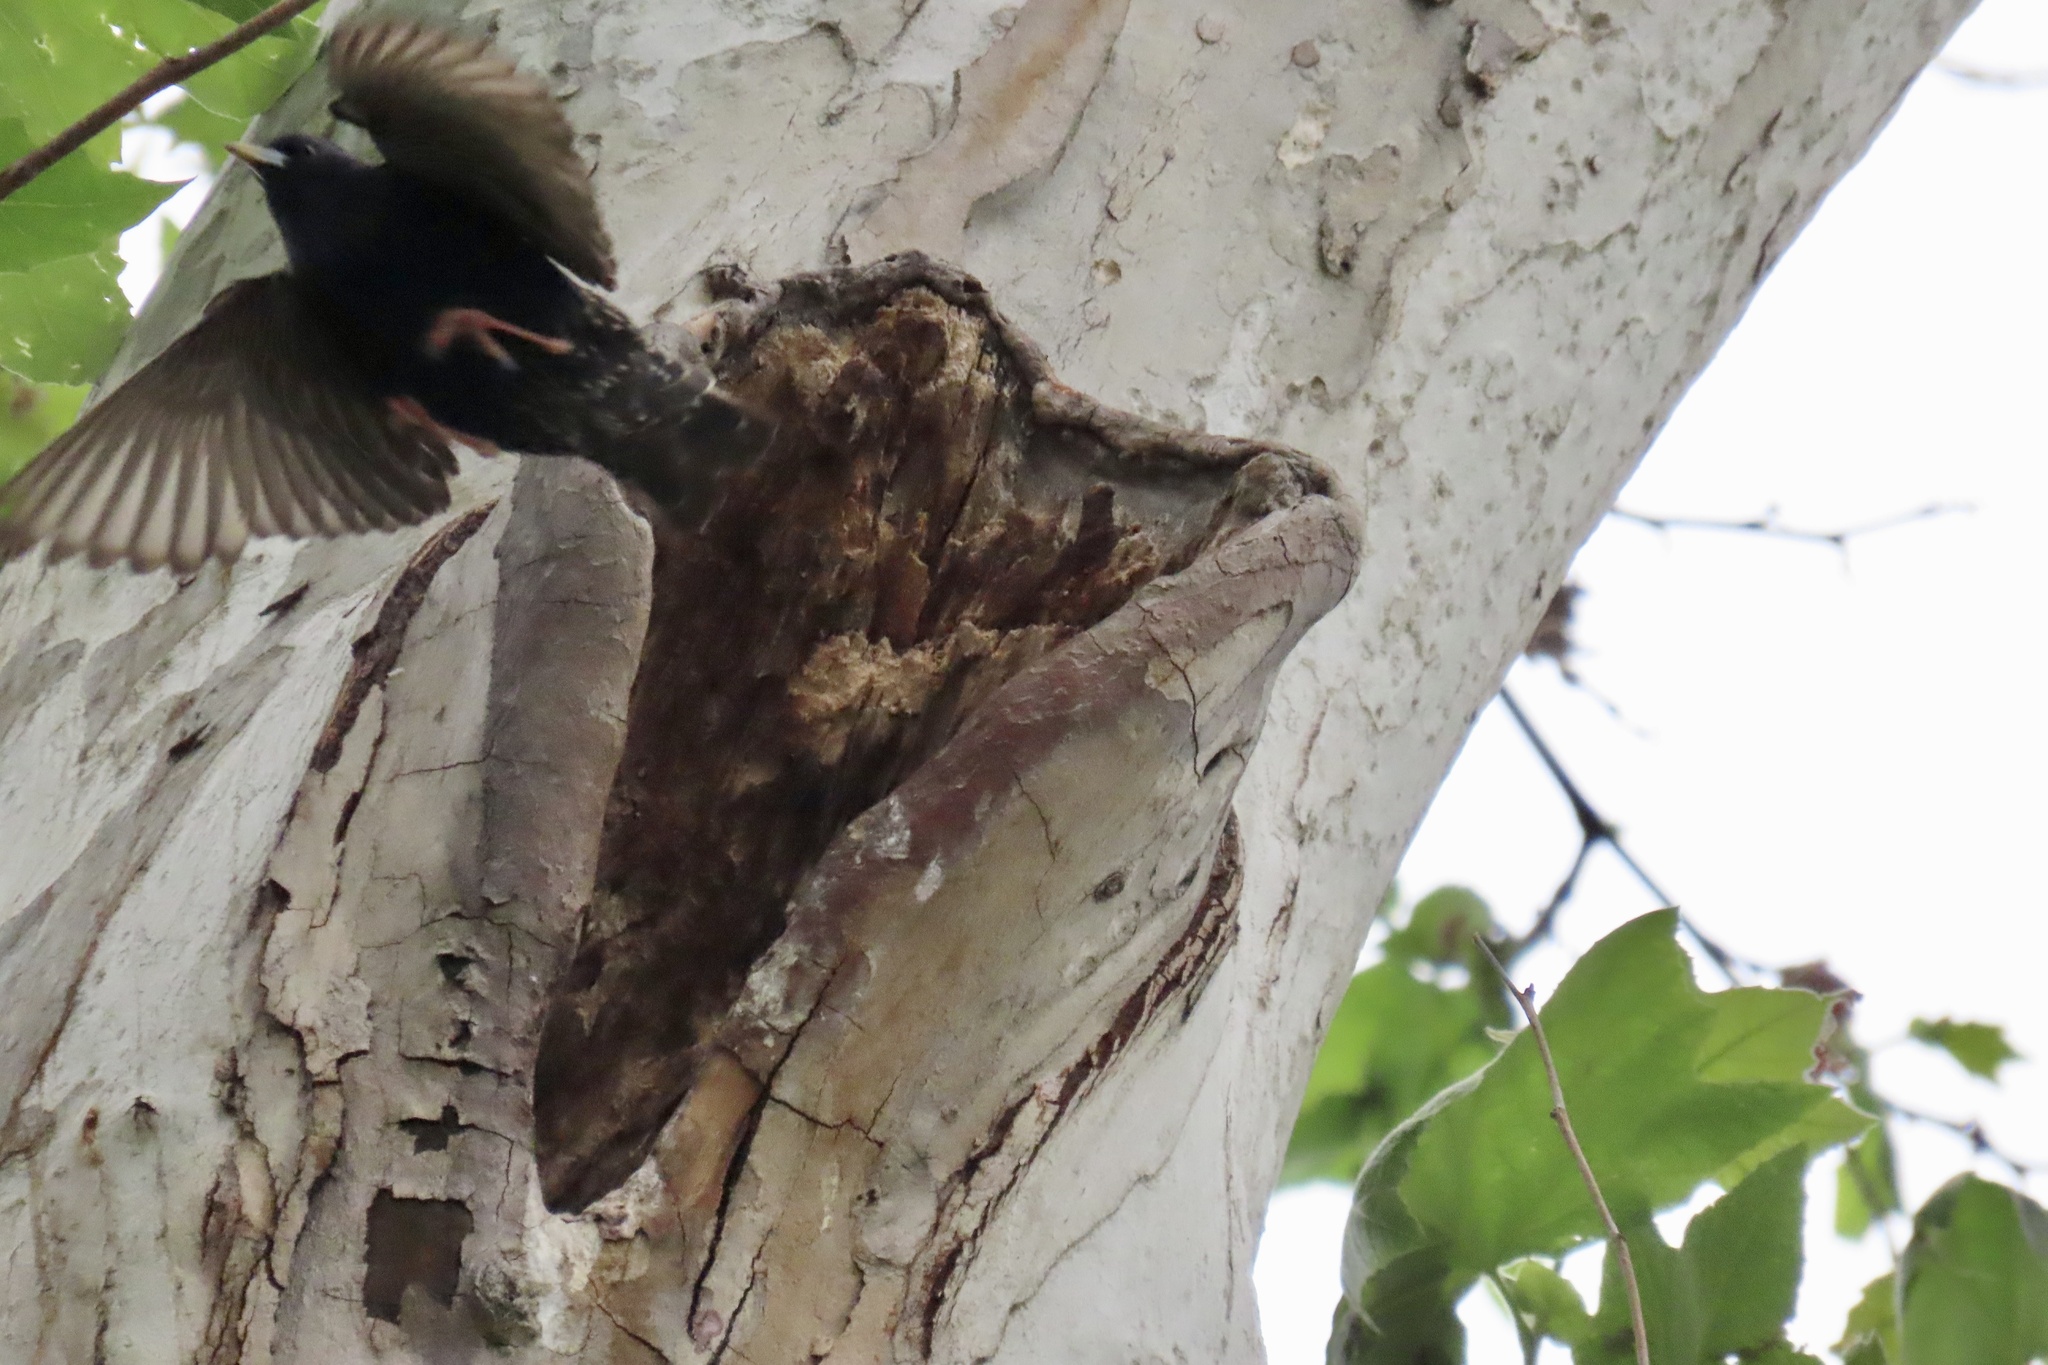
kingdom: Animalia
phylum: Chordata
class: Aves
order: Passeriformes
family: Sturnidae
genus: Sturnus
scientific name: Sturnus vulgaris
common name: Common starling
